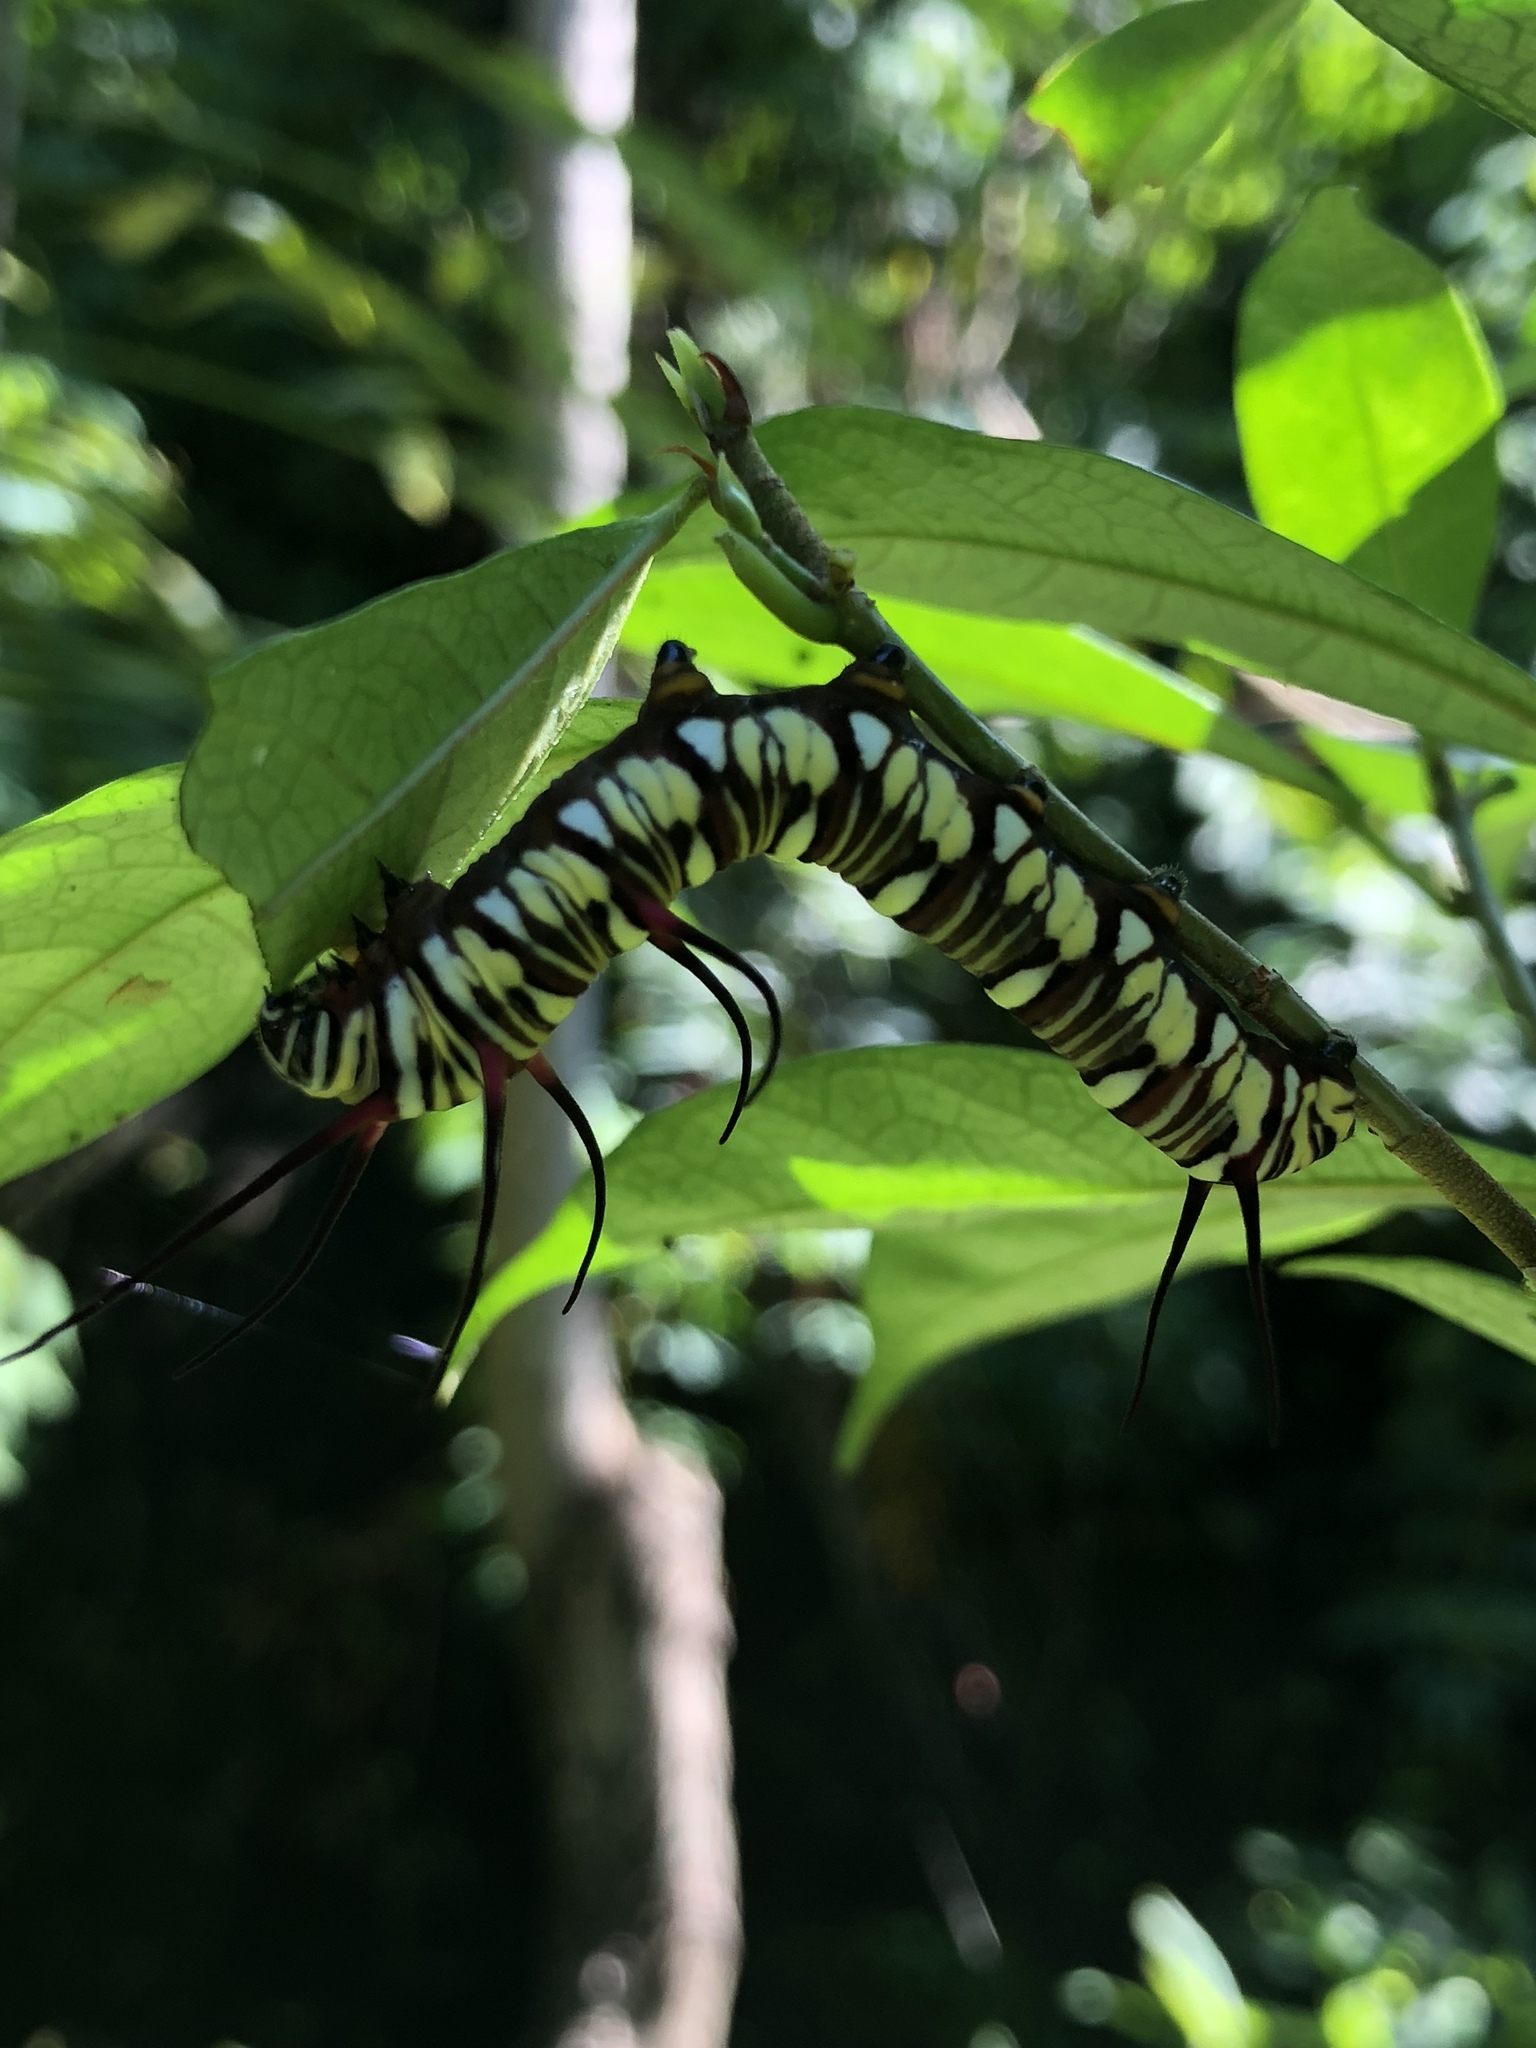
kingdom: Animalia
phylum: Arthropoda
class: Insecta
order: Lepidoptera
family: Nymphalidae
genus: Euploea
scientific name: Euploea mulciber
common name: Striped blue crow butterfly
